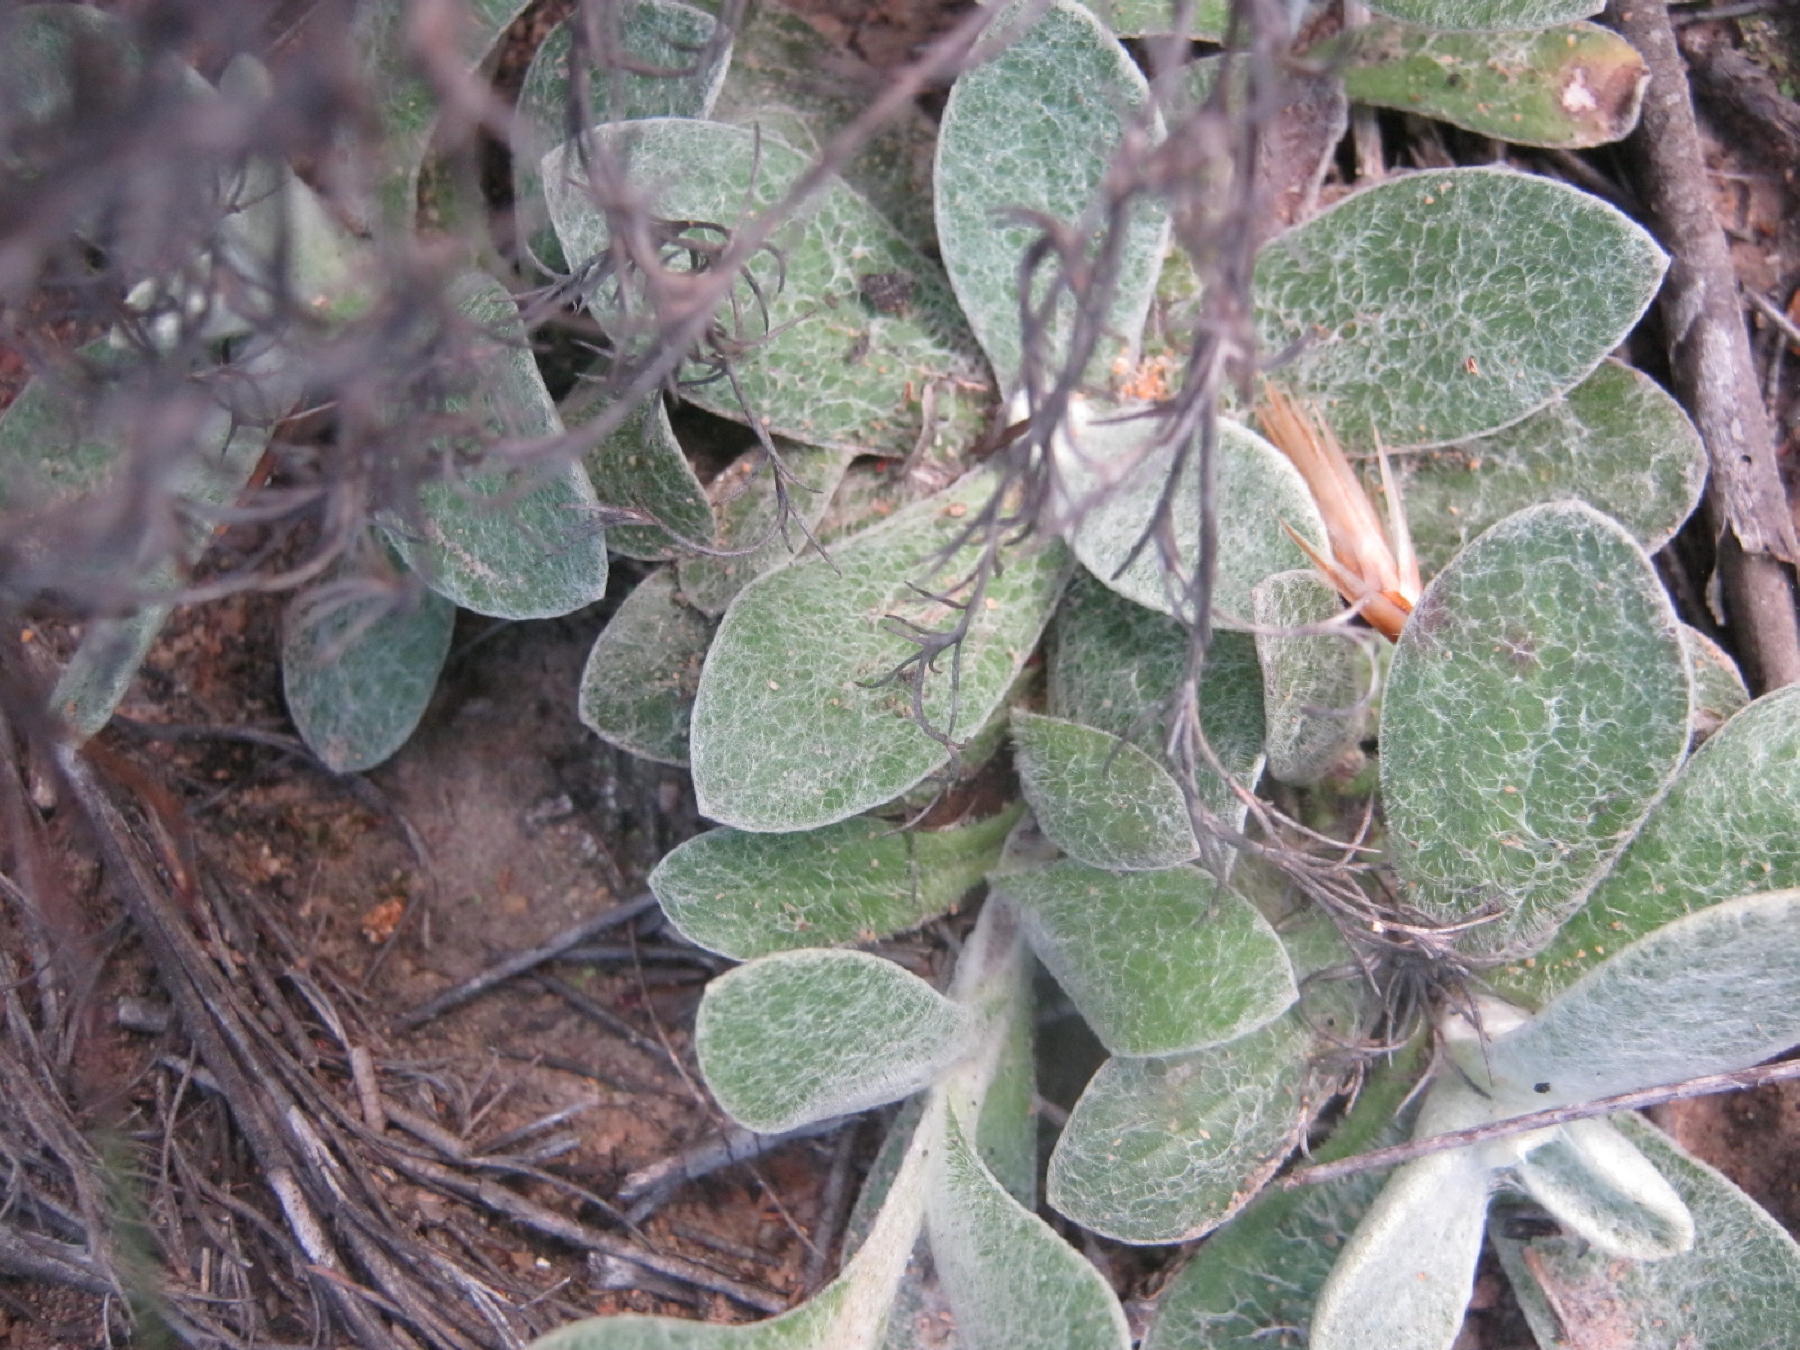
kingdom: Plantae
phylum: Tracheophyta
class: Magnoliopsida
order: Asterales
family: Asteraceae
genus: Helichrysum
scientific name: Helichrysum rotundifolium
